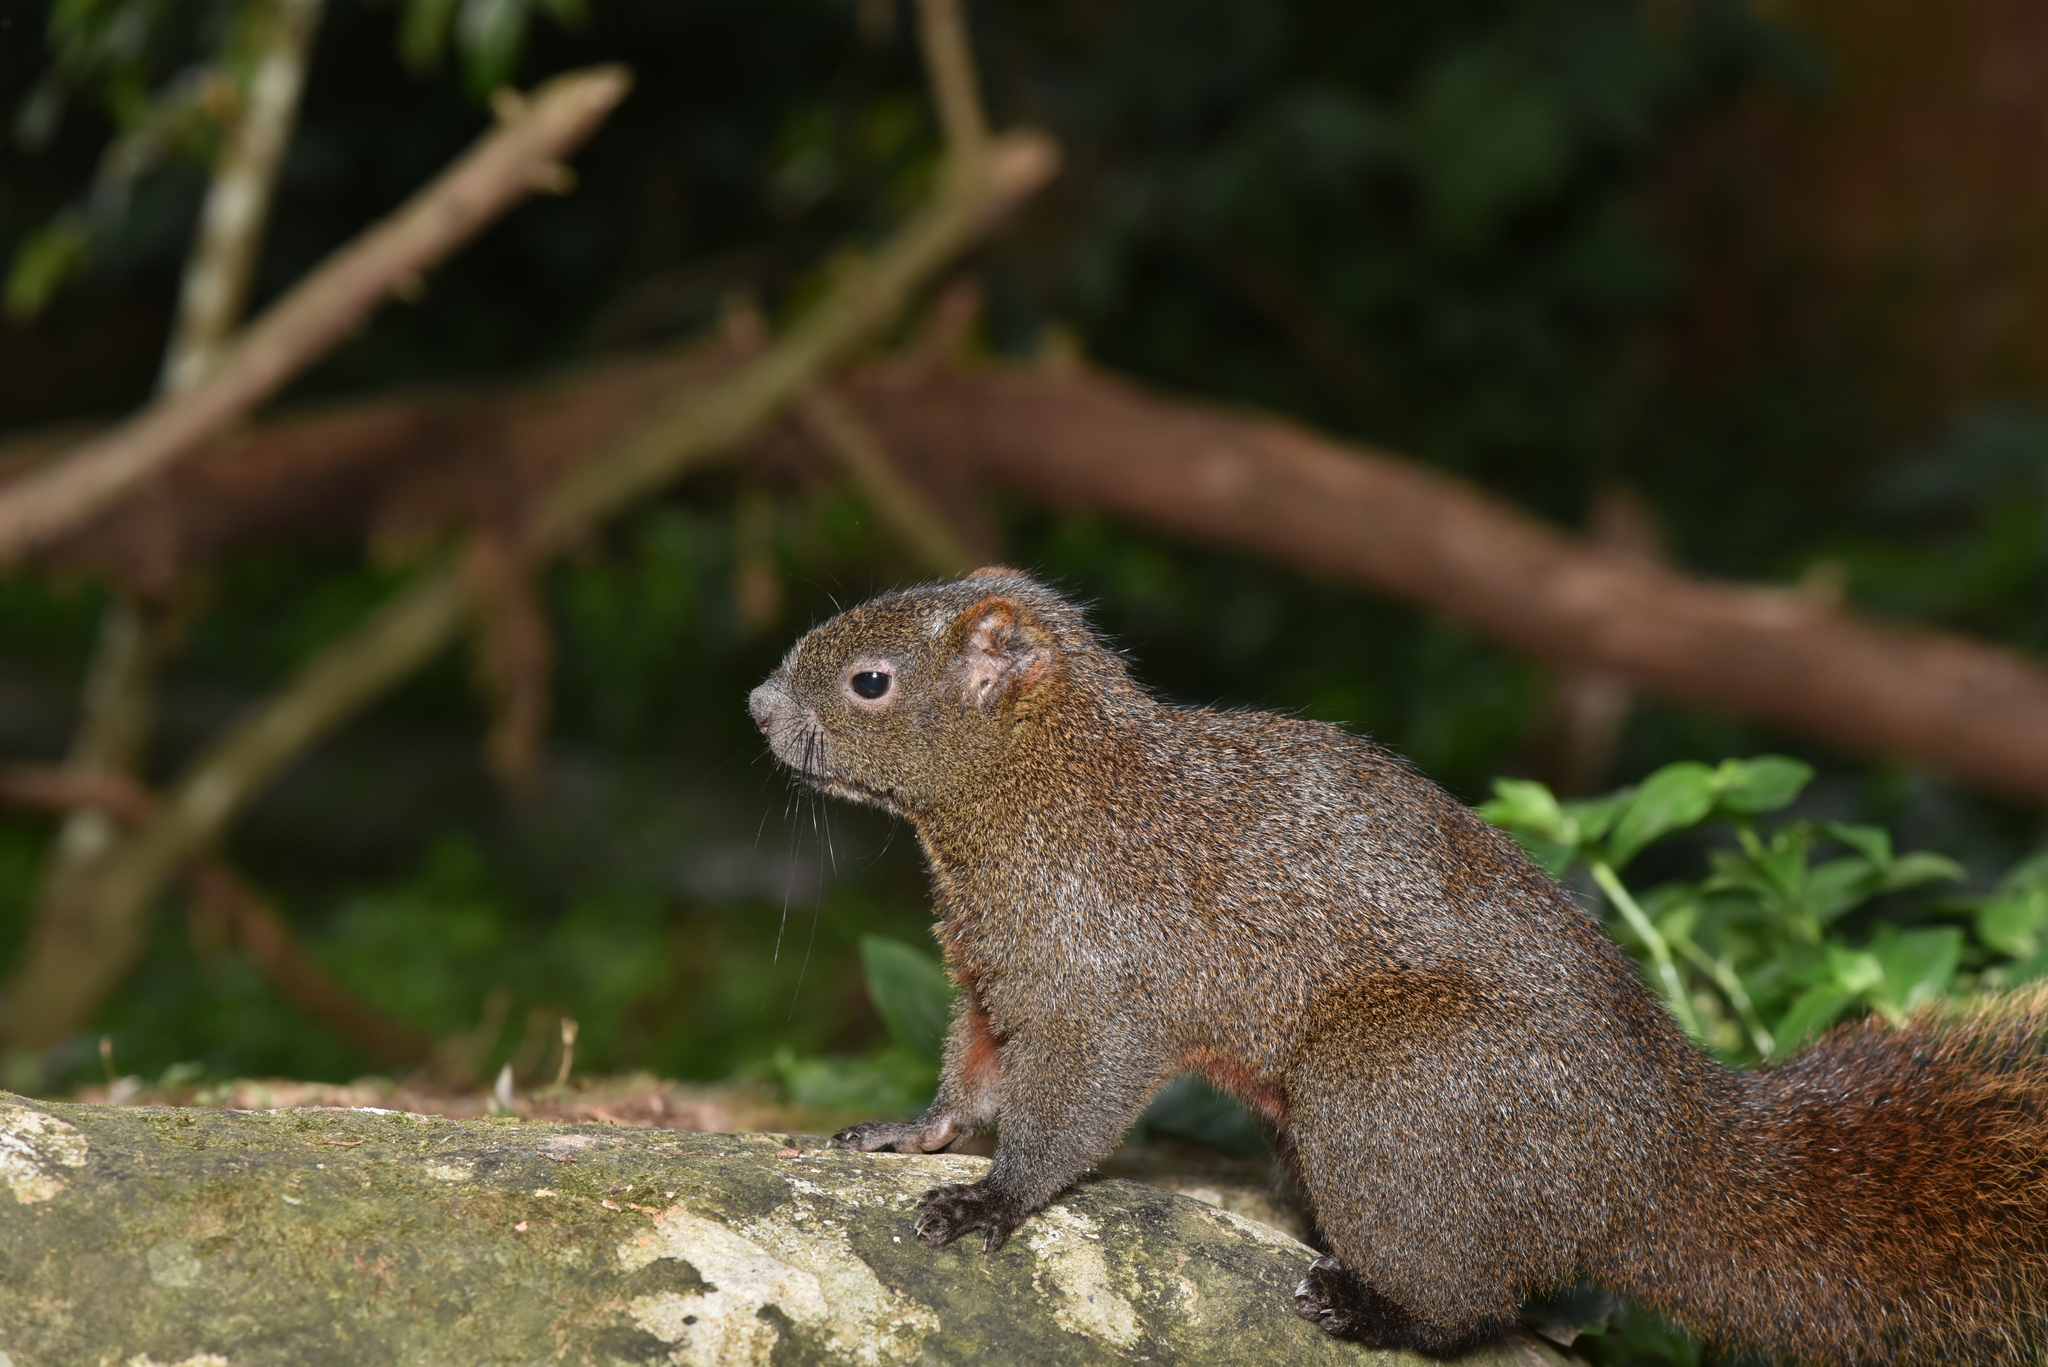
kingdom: Animalia
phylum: Chordata
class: Mammalia
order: Rodentia
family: Sciuridae
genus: Callosciurus
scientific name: Callosciurus erythraeus
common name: Pallas's squirrel
